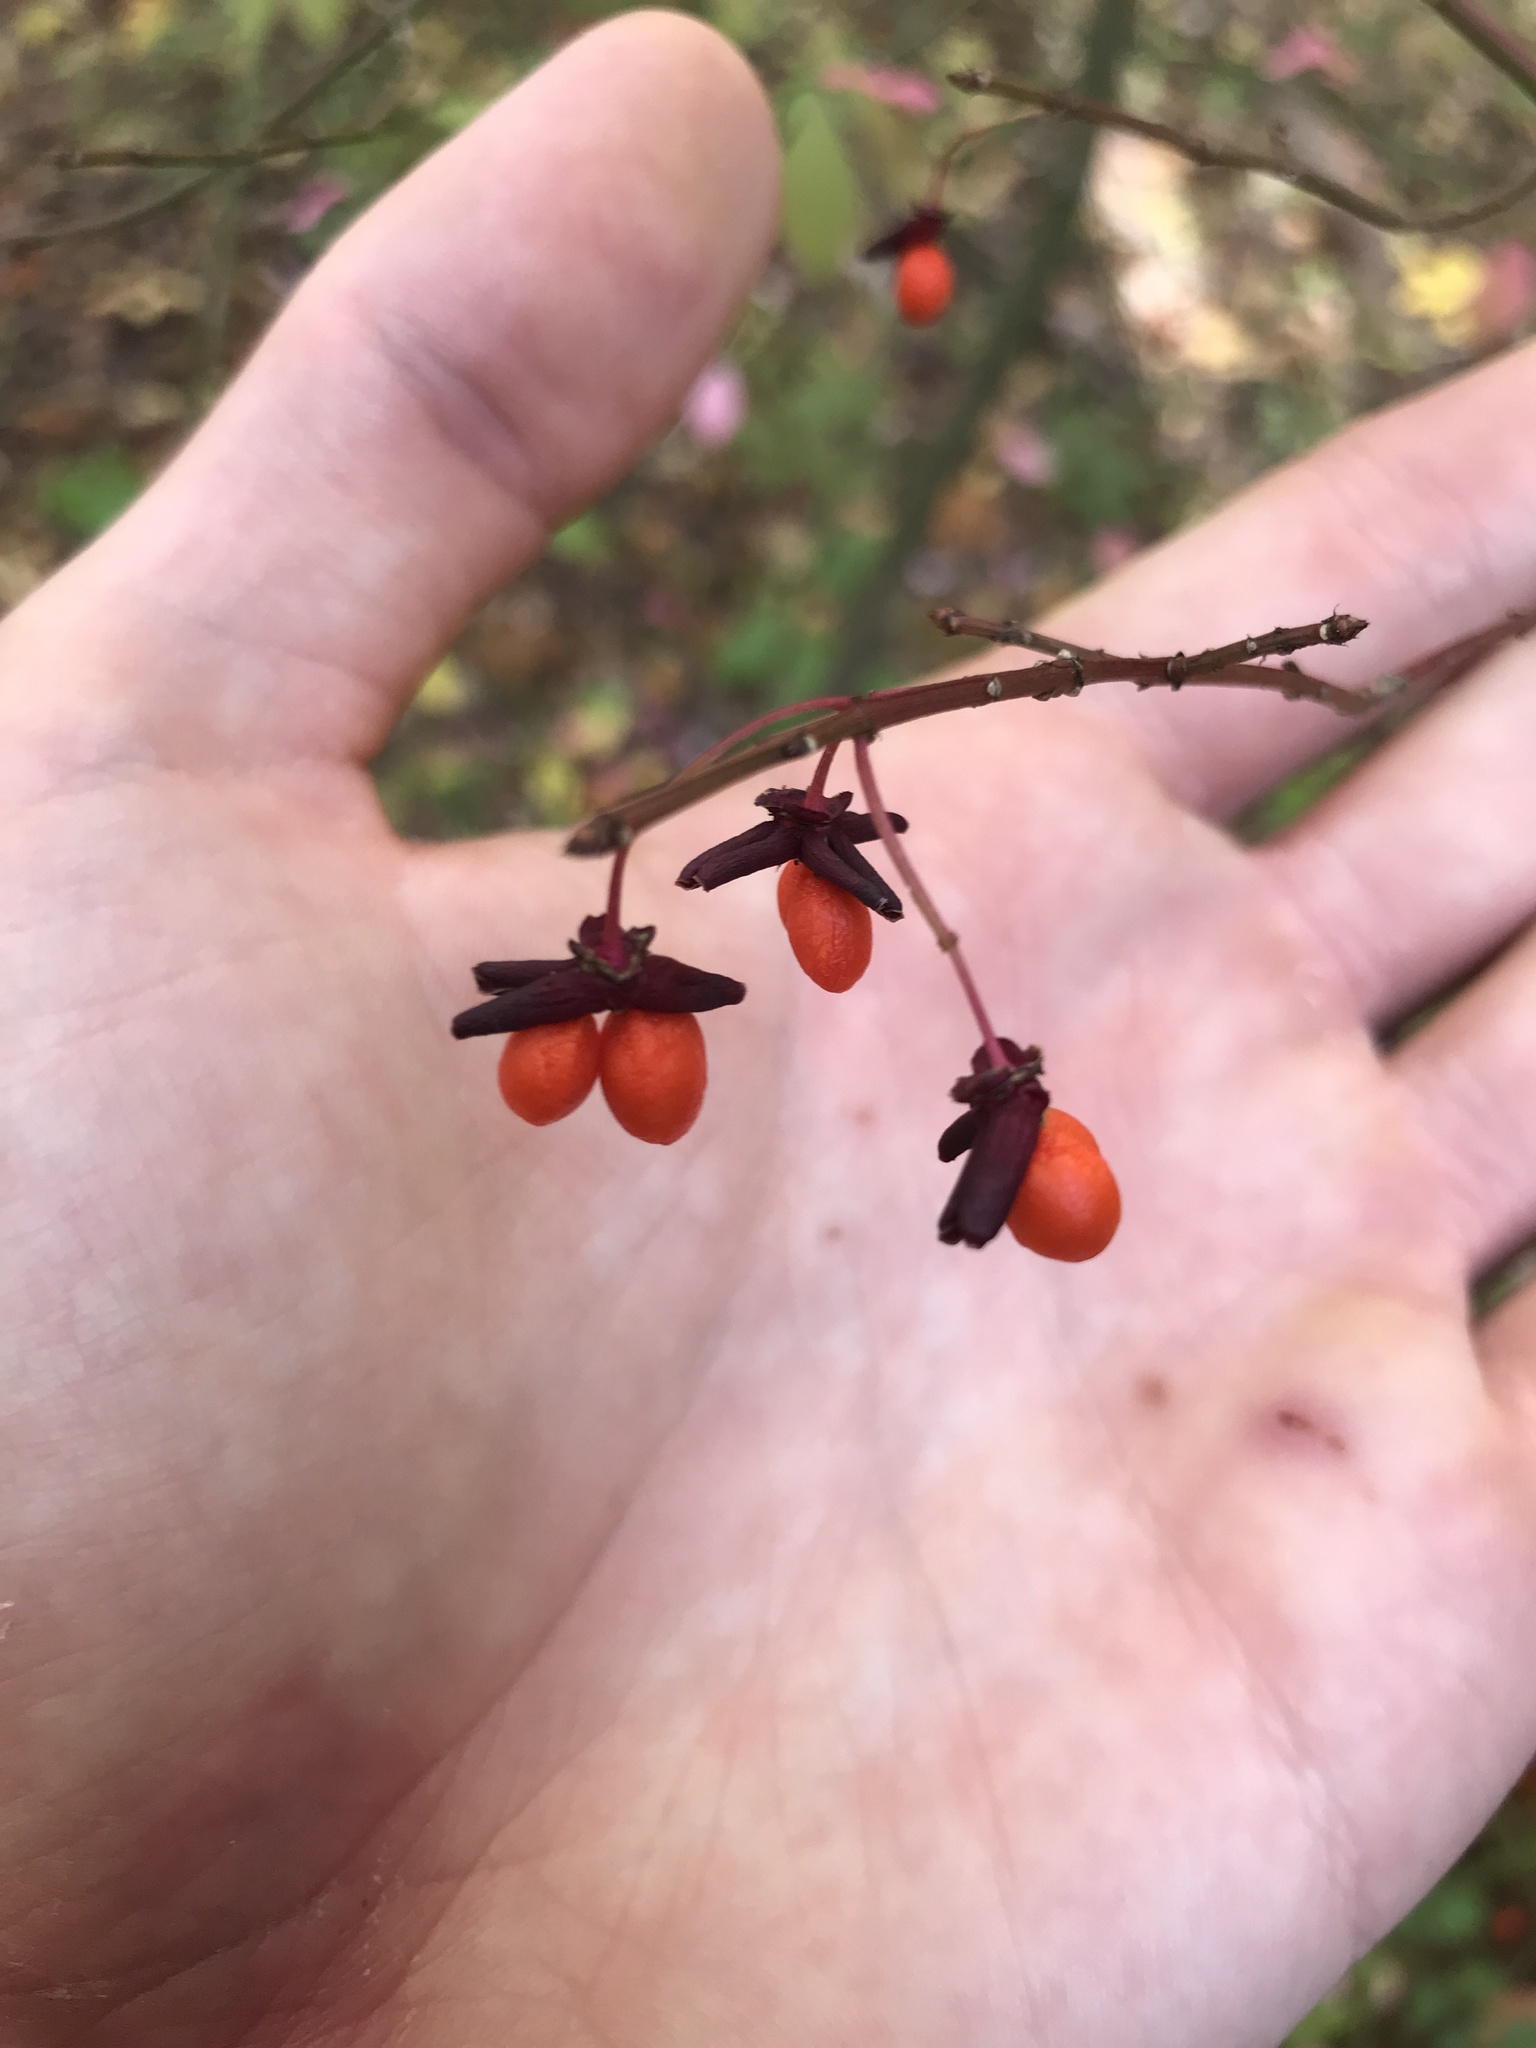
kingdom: Plantae
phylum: Tracheophyta
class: Magnoliopsida
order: Celastrales
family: Celastraceae
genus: Euonymus
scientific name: Euonymus alatus
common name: Winged euonymus
